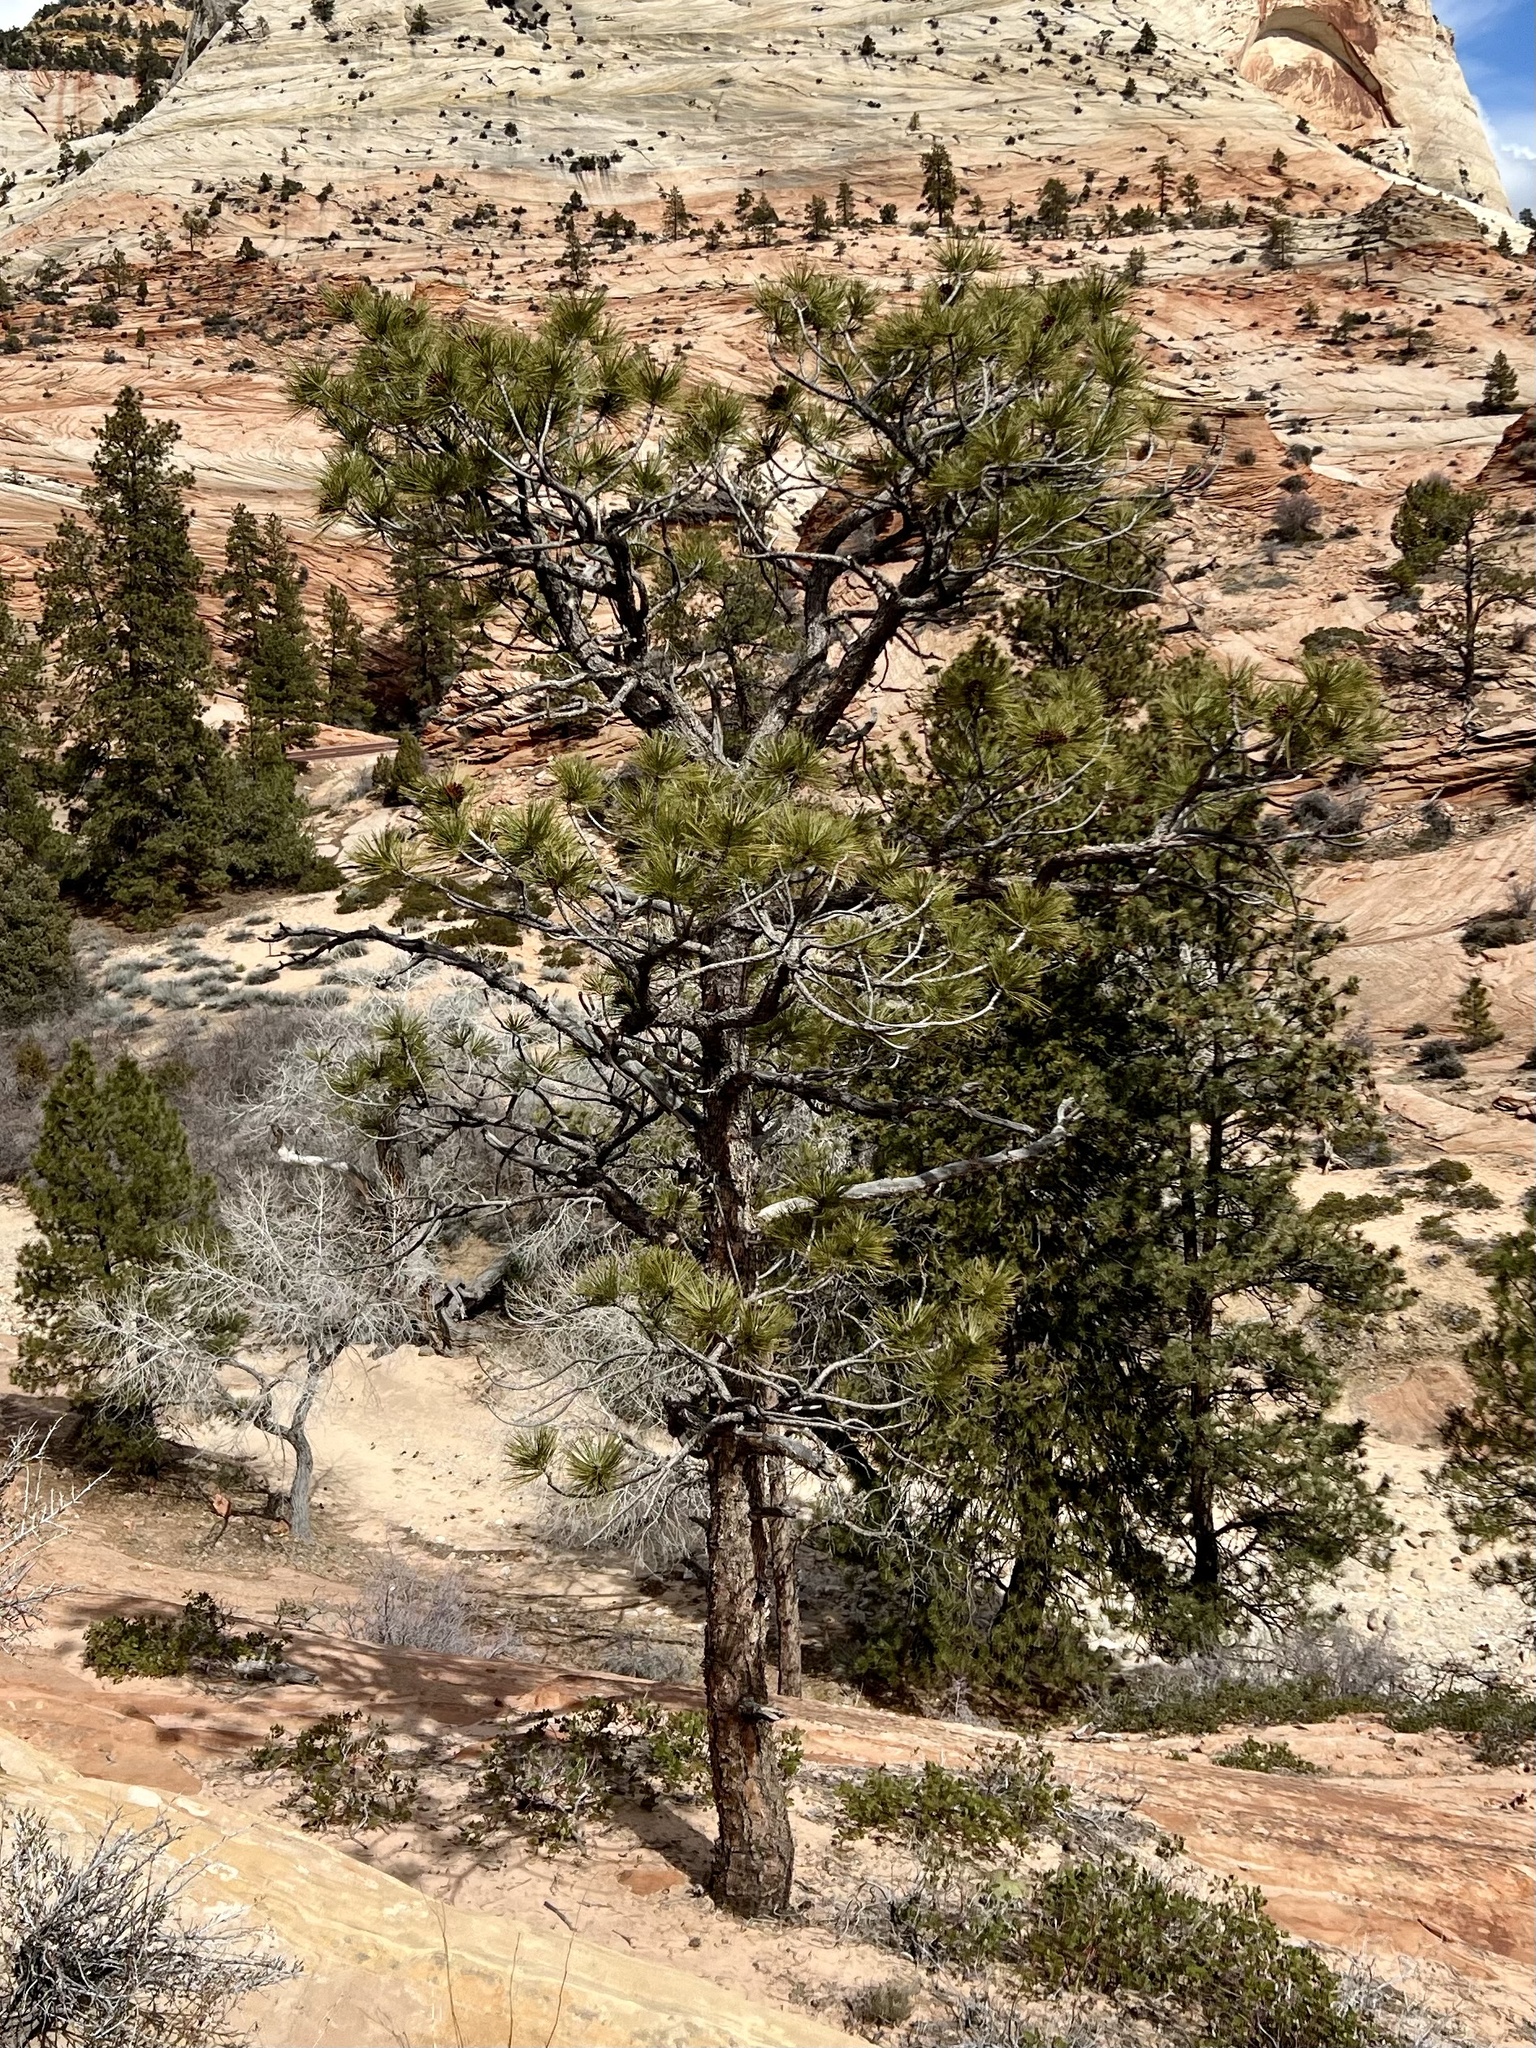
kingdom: Plantae
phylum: Tracheophyta
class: Pinopsida
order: Pinales
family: Pinaceae
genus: Pinus
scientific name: Pinus ponderosa
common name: Western yellow-pine
